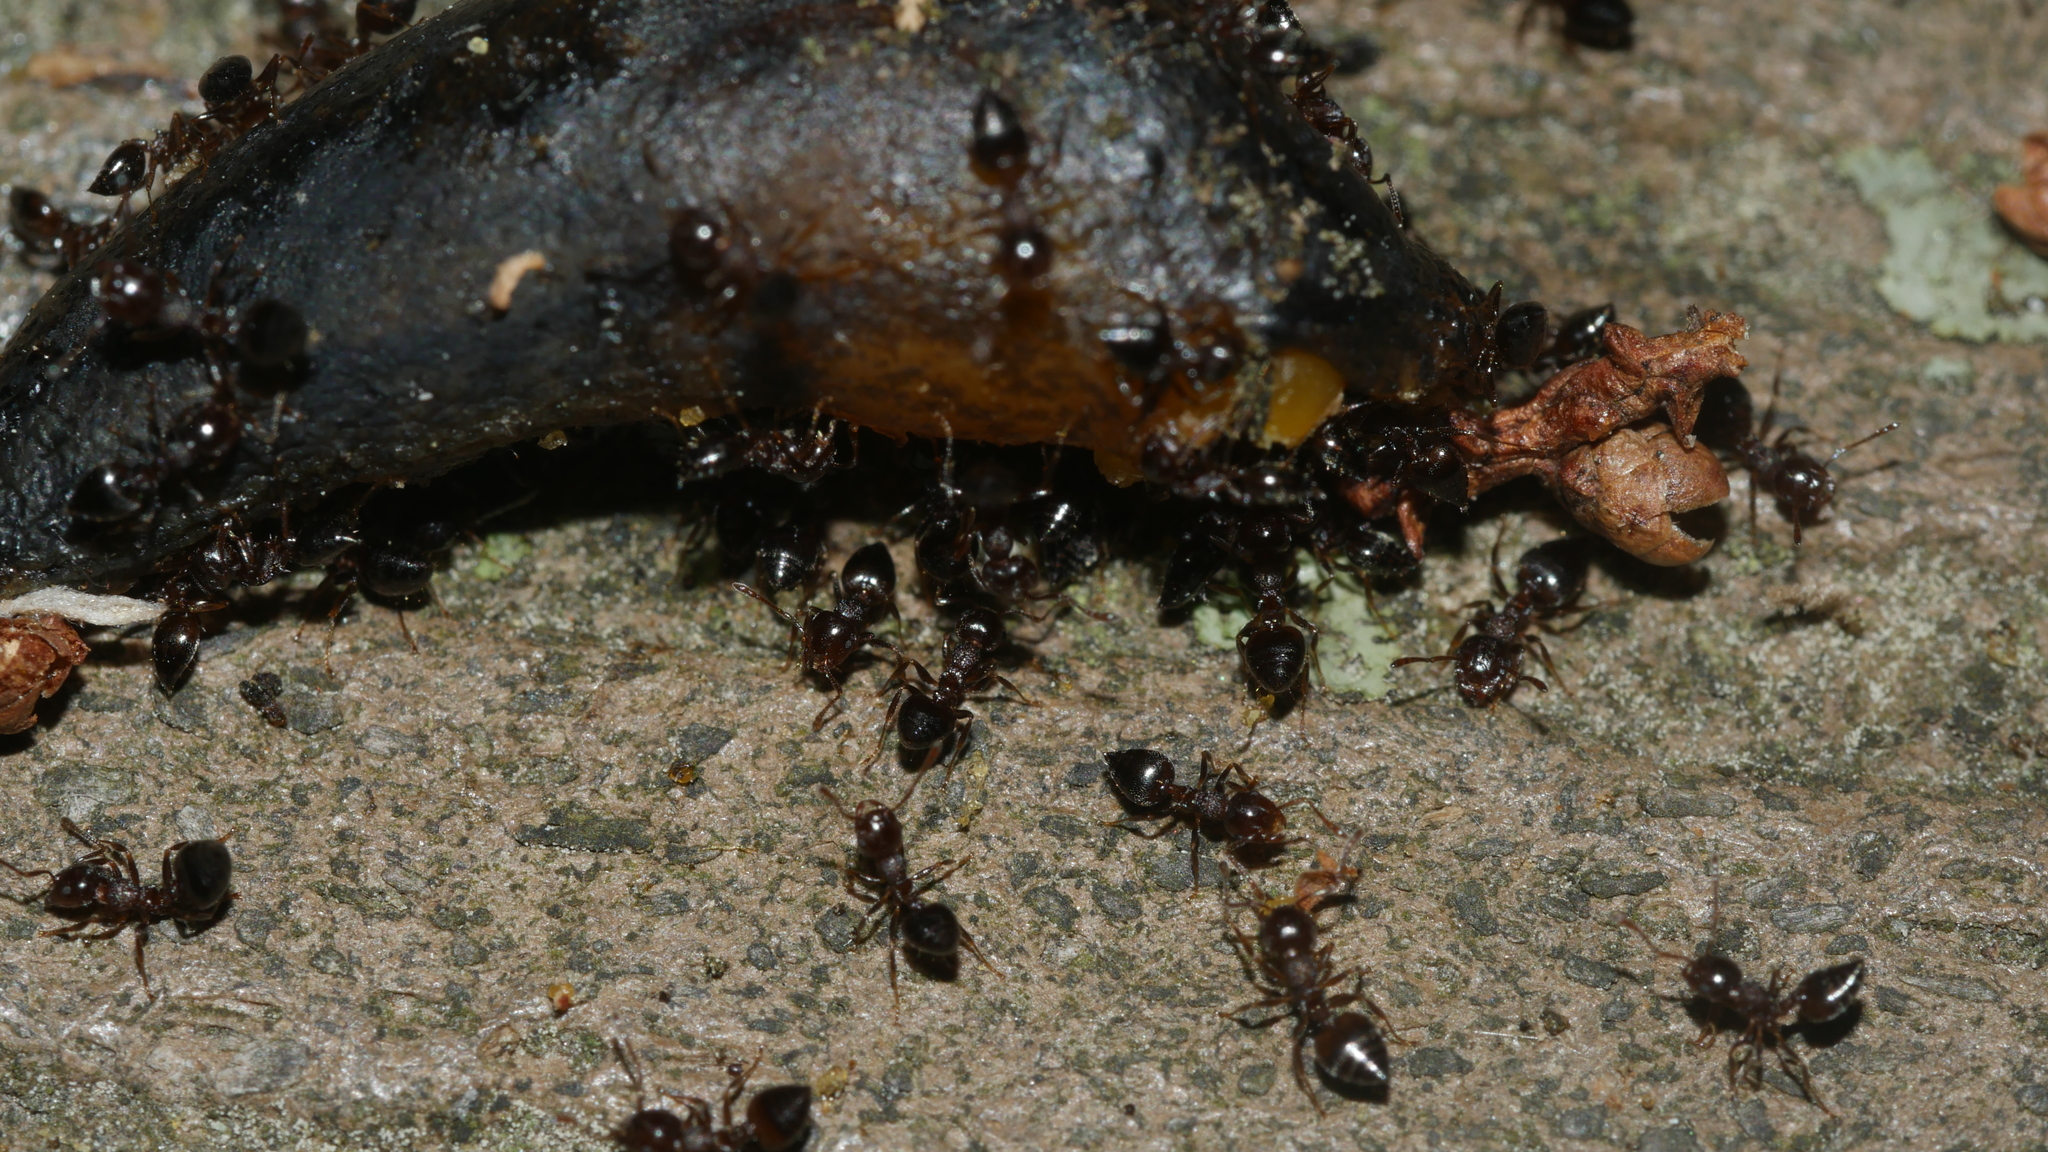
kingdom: Animalia
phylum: Arthropoda
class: Insecta
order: Hymenoptera
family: Formicidae
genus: Crematogaster
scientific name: Crematogaster cerasi
